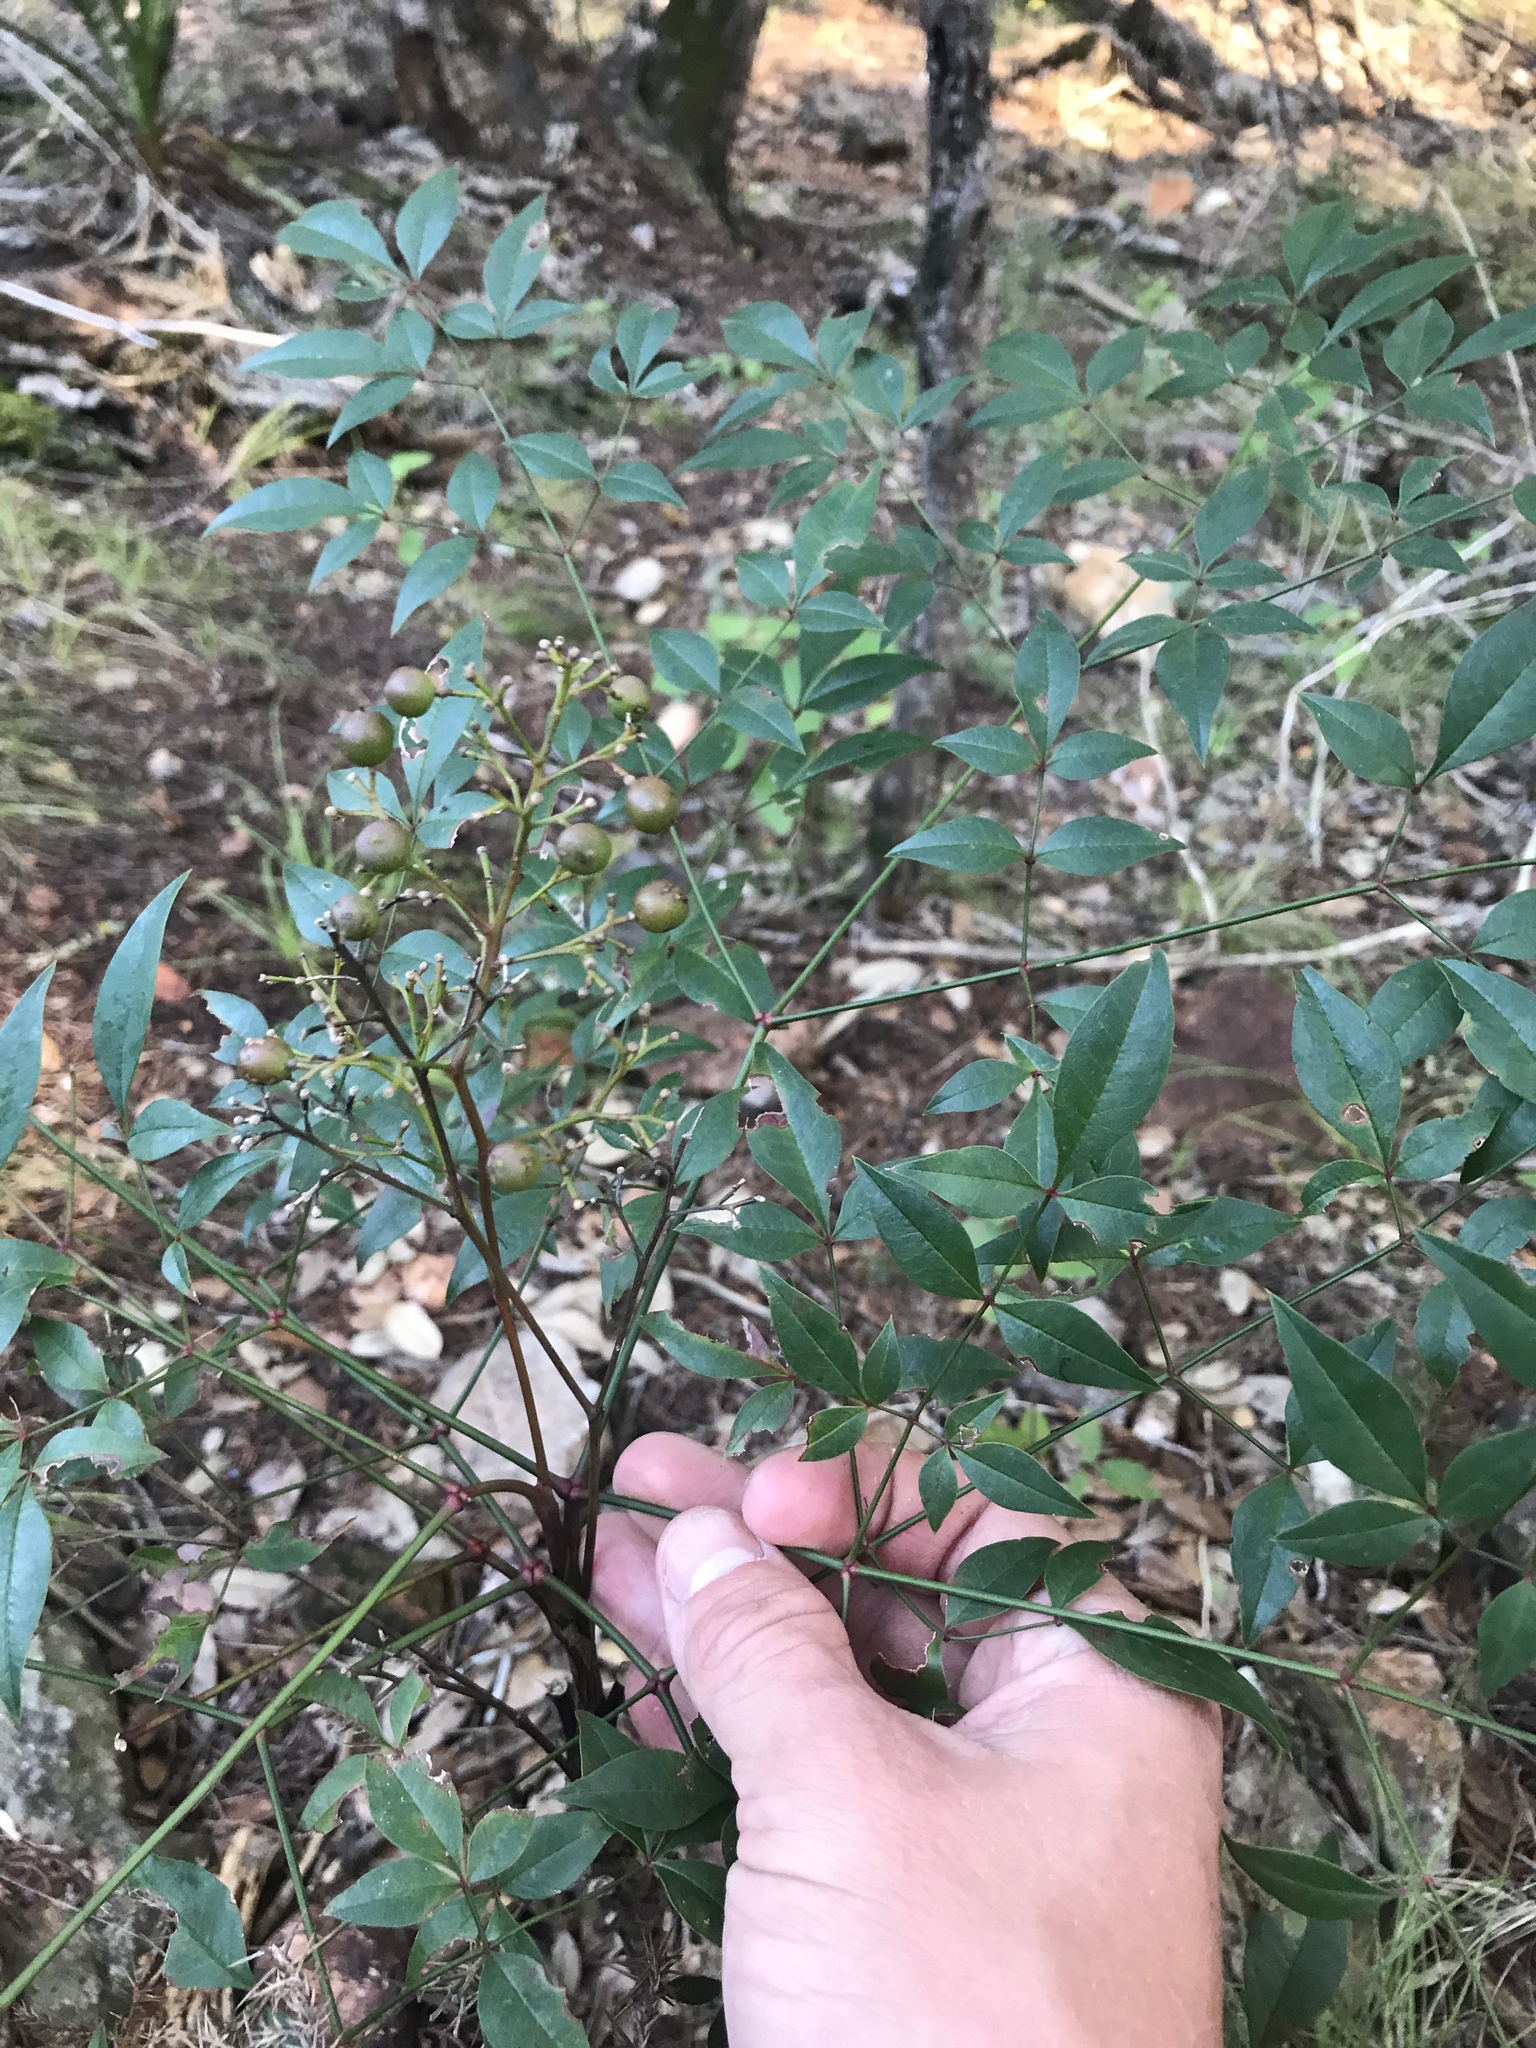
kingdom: Plantae
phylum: Tracheophyta
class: Magnoliopsida
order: Ranunculales
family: Berberidaceae
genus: Nandina
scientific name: Nandina domestica
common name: Sacred bamboo
